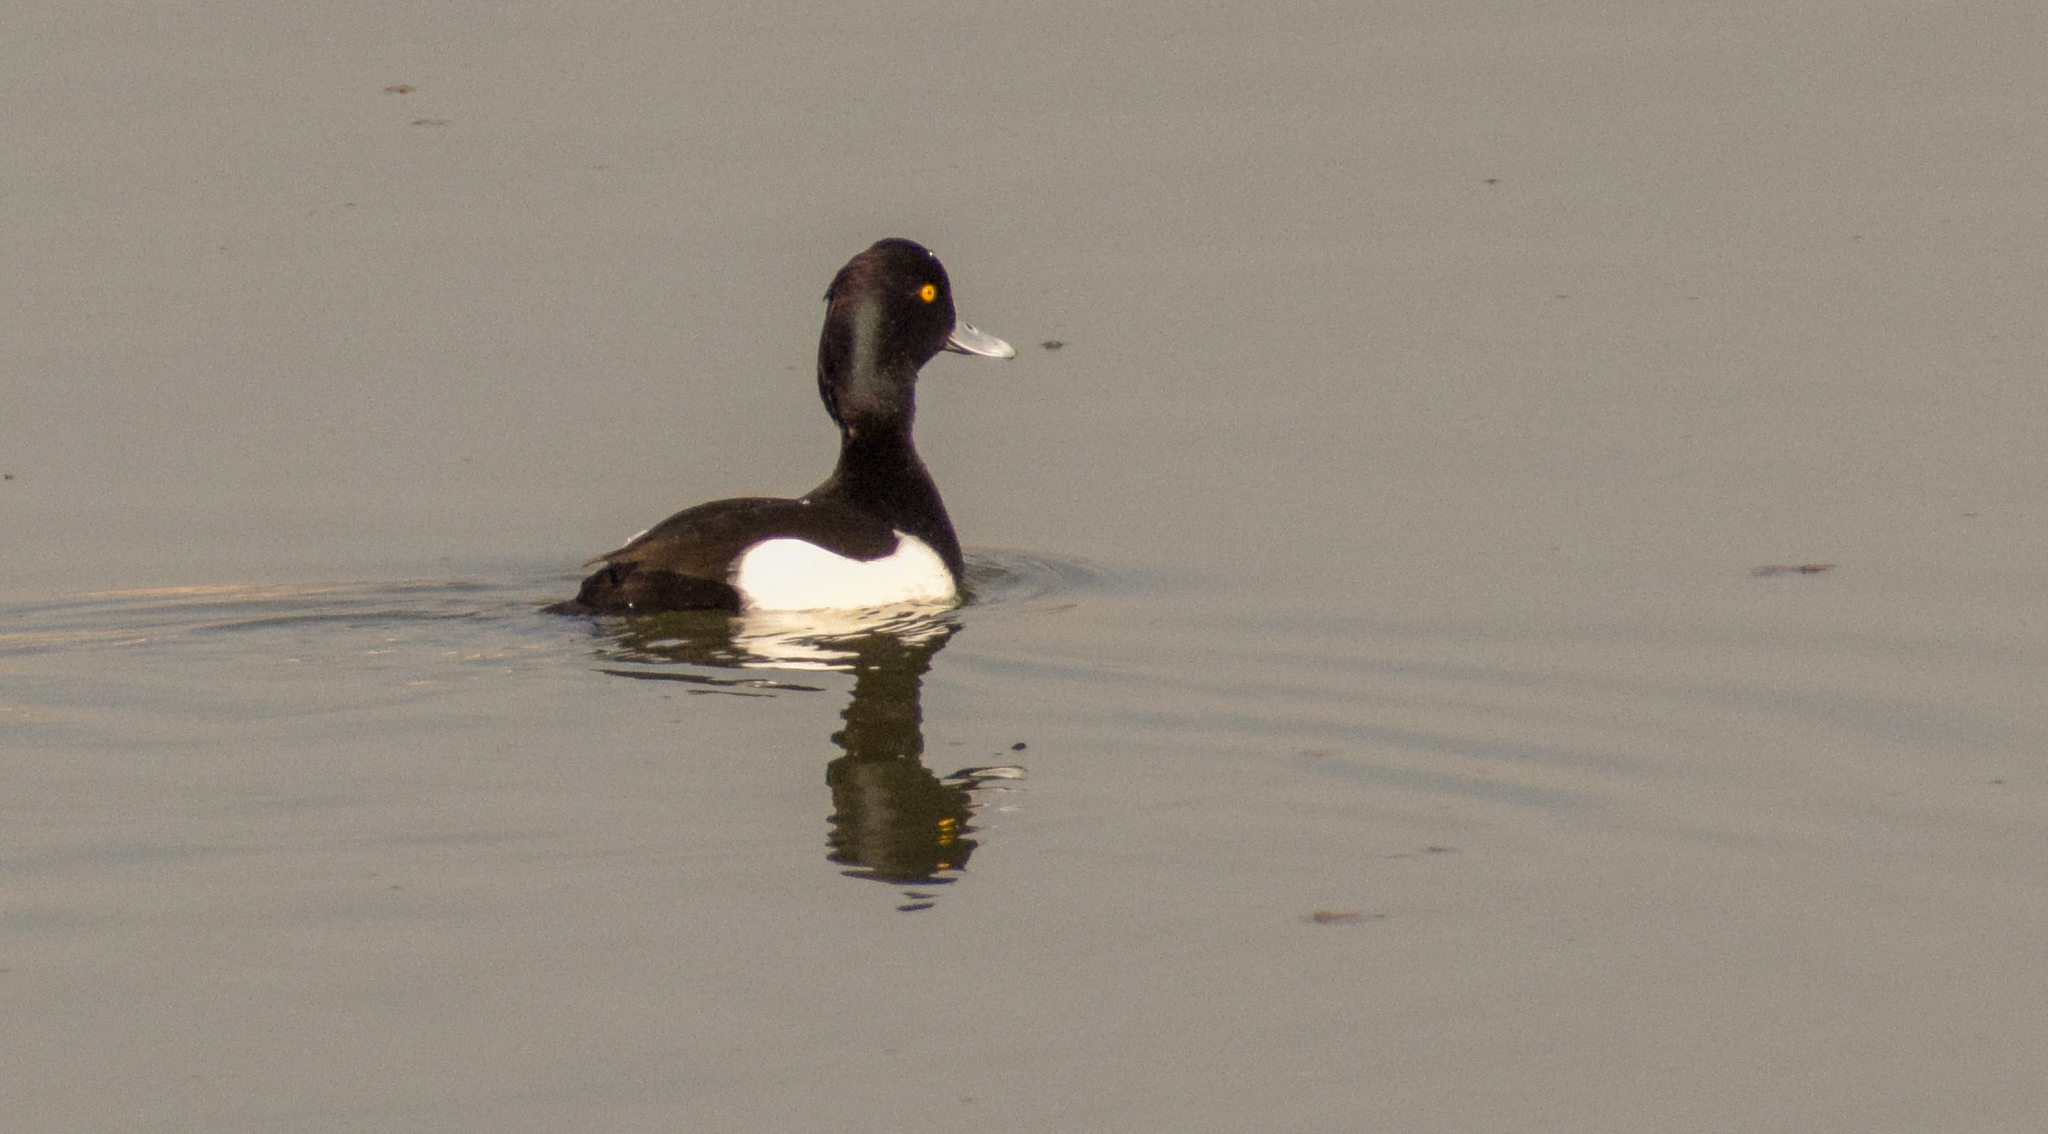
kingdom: Animalia
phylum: Chordata
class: Aves
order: Anseriformes
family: Anatidae
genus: Aythya
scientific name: Aythya fuligula
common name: Tufted duck
